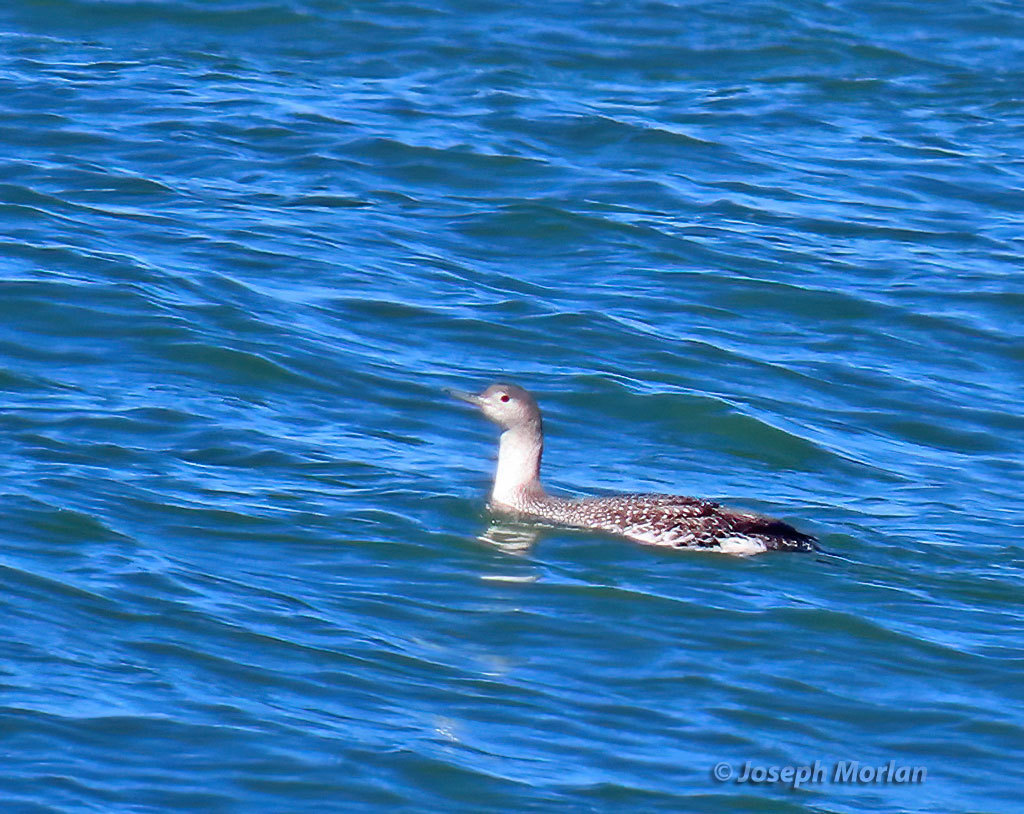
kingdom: Animalia
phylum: Chordata
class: Aves
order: Gaviiformes
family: Gaviidae
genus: Gavia
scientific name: Gavia stellata
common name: Red-throated loon
